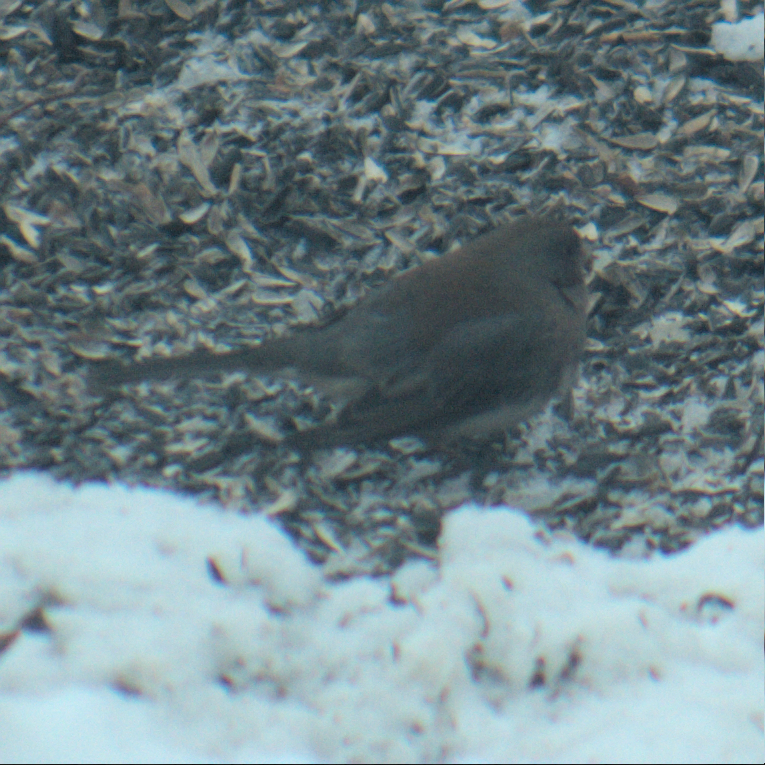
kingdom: Animalia
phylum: Chordata
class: Aves
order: Passeriformes
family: Passerellidae
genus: Junco
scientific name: Junco hyemalis
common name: Dark-eyed junco
